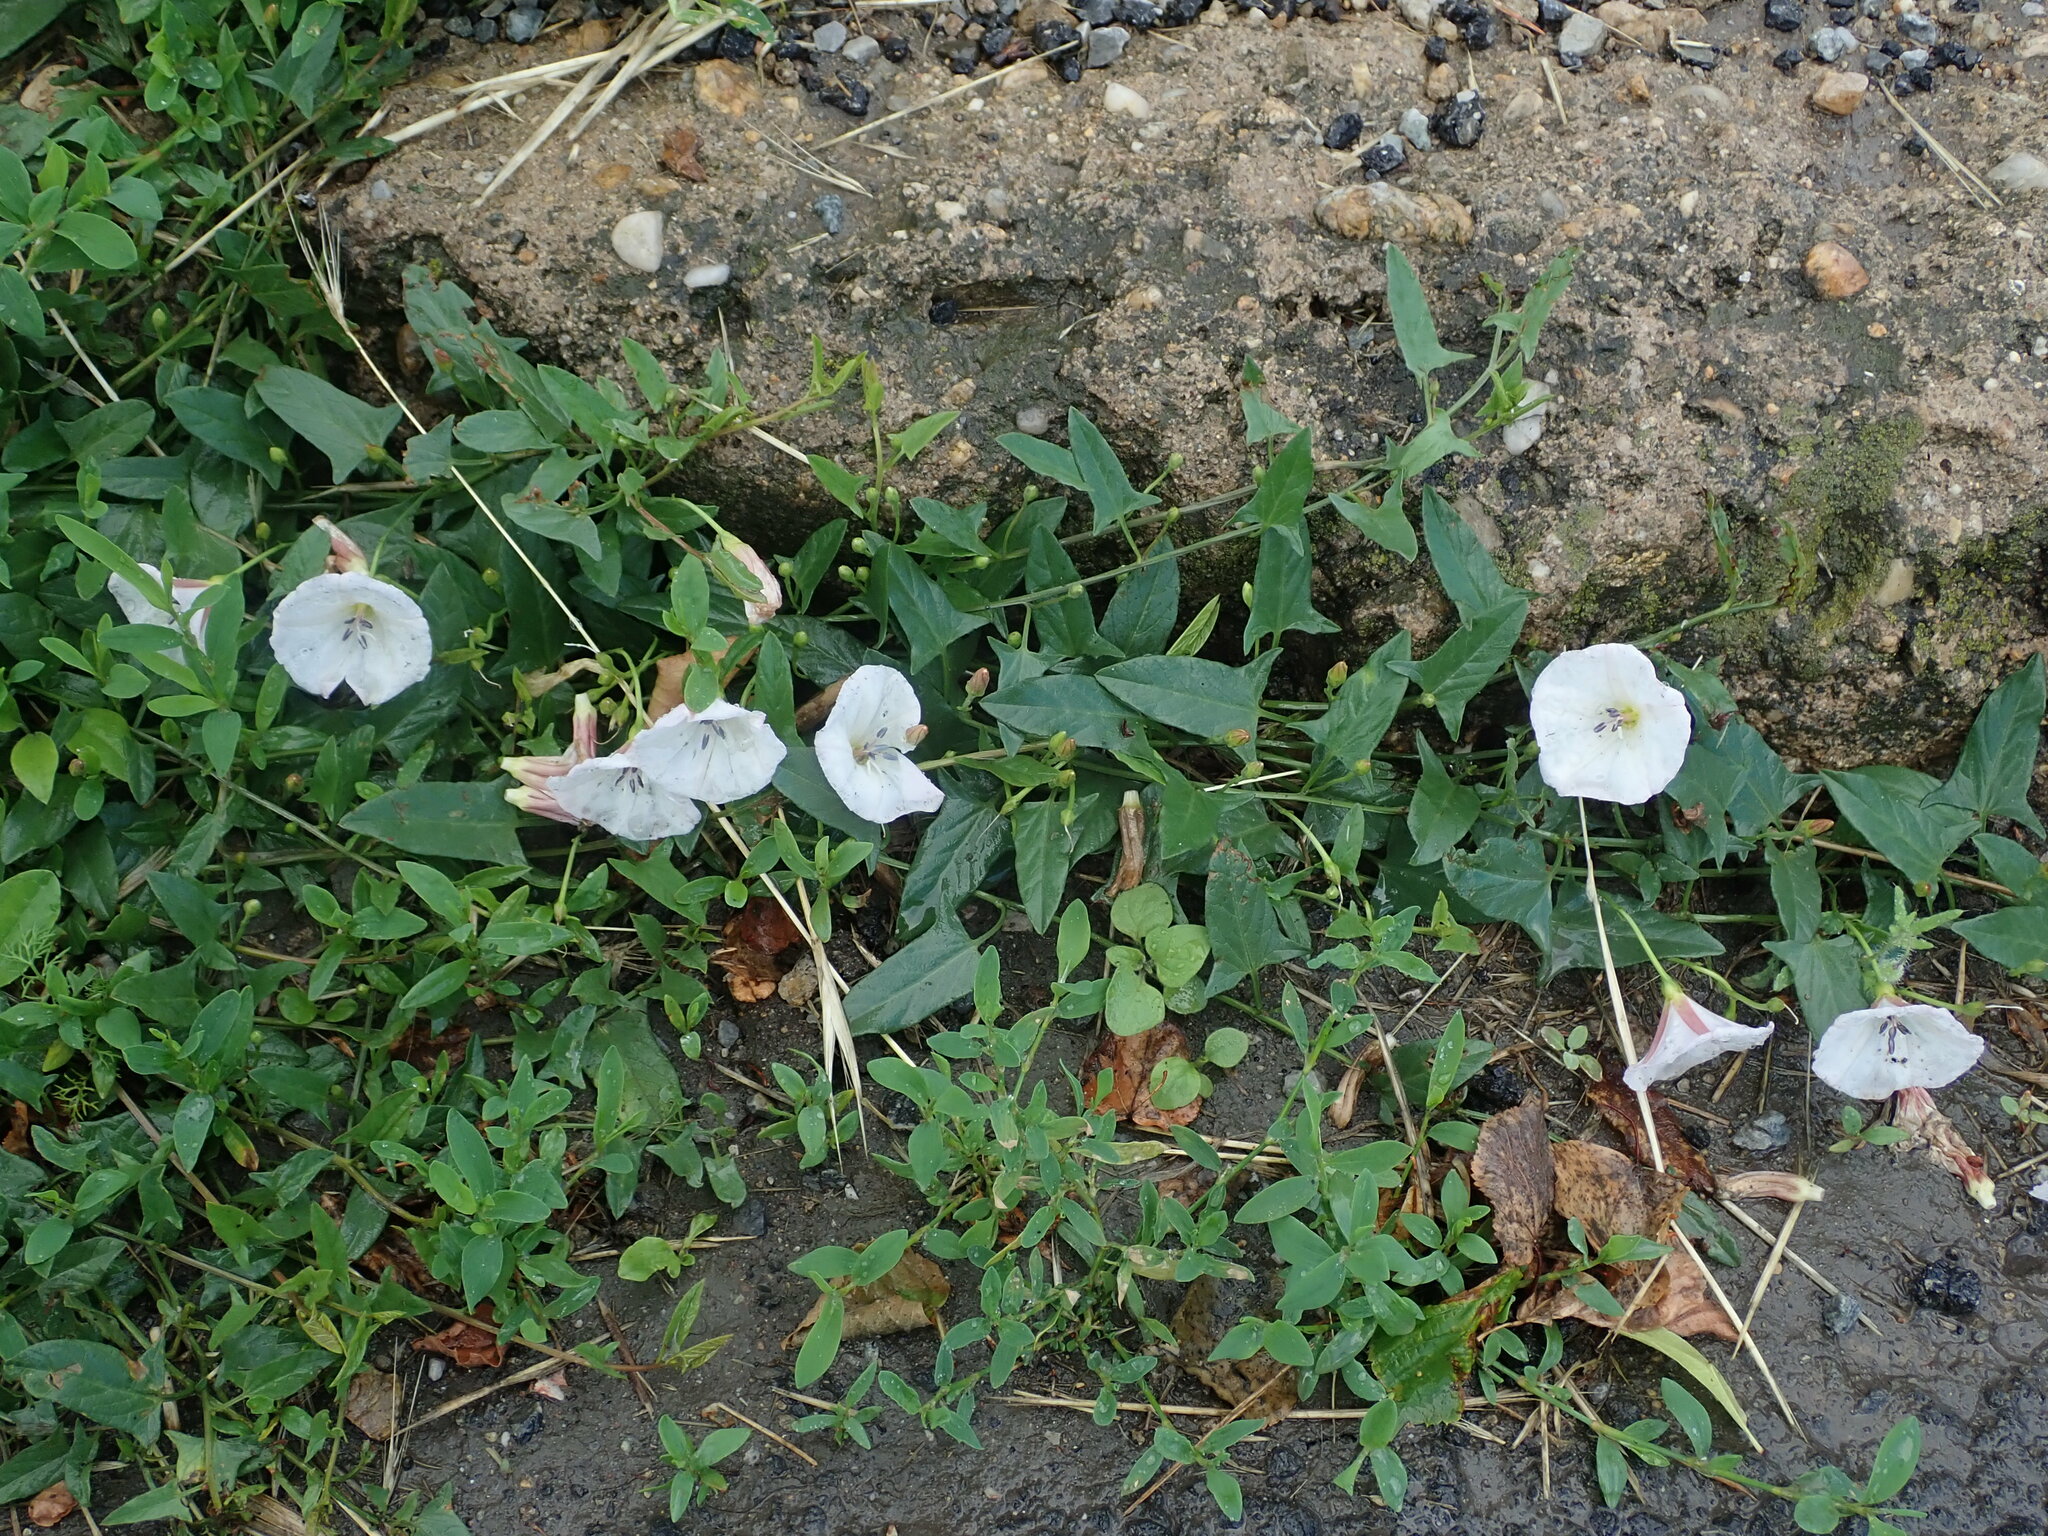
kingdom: Plantae
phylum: Tracheophyta
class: Magnoliopsida
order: Solanales
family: Convolvulaceae
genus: Convolvulus
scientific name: Convolvulus arvensis
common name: Field bindweed
